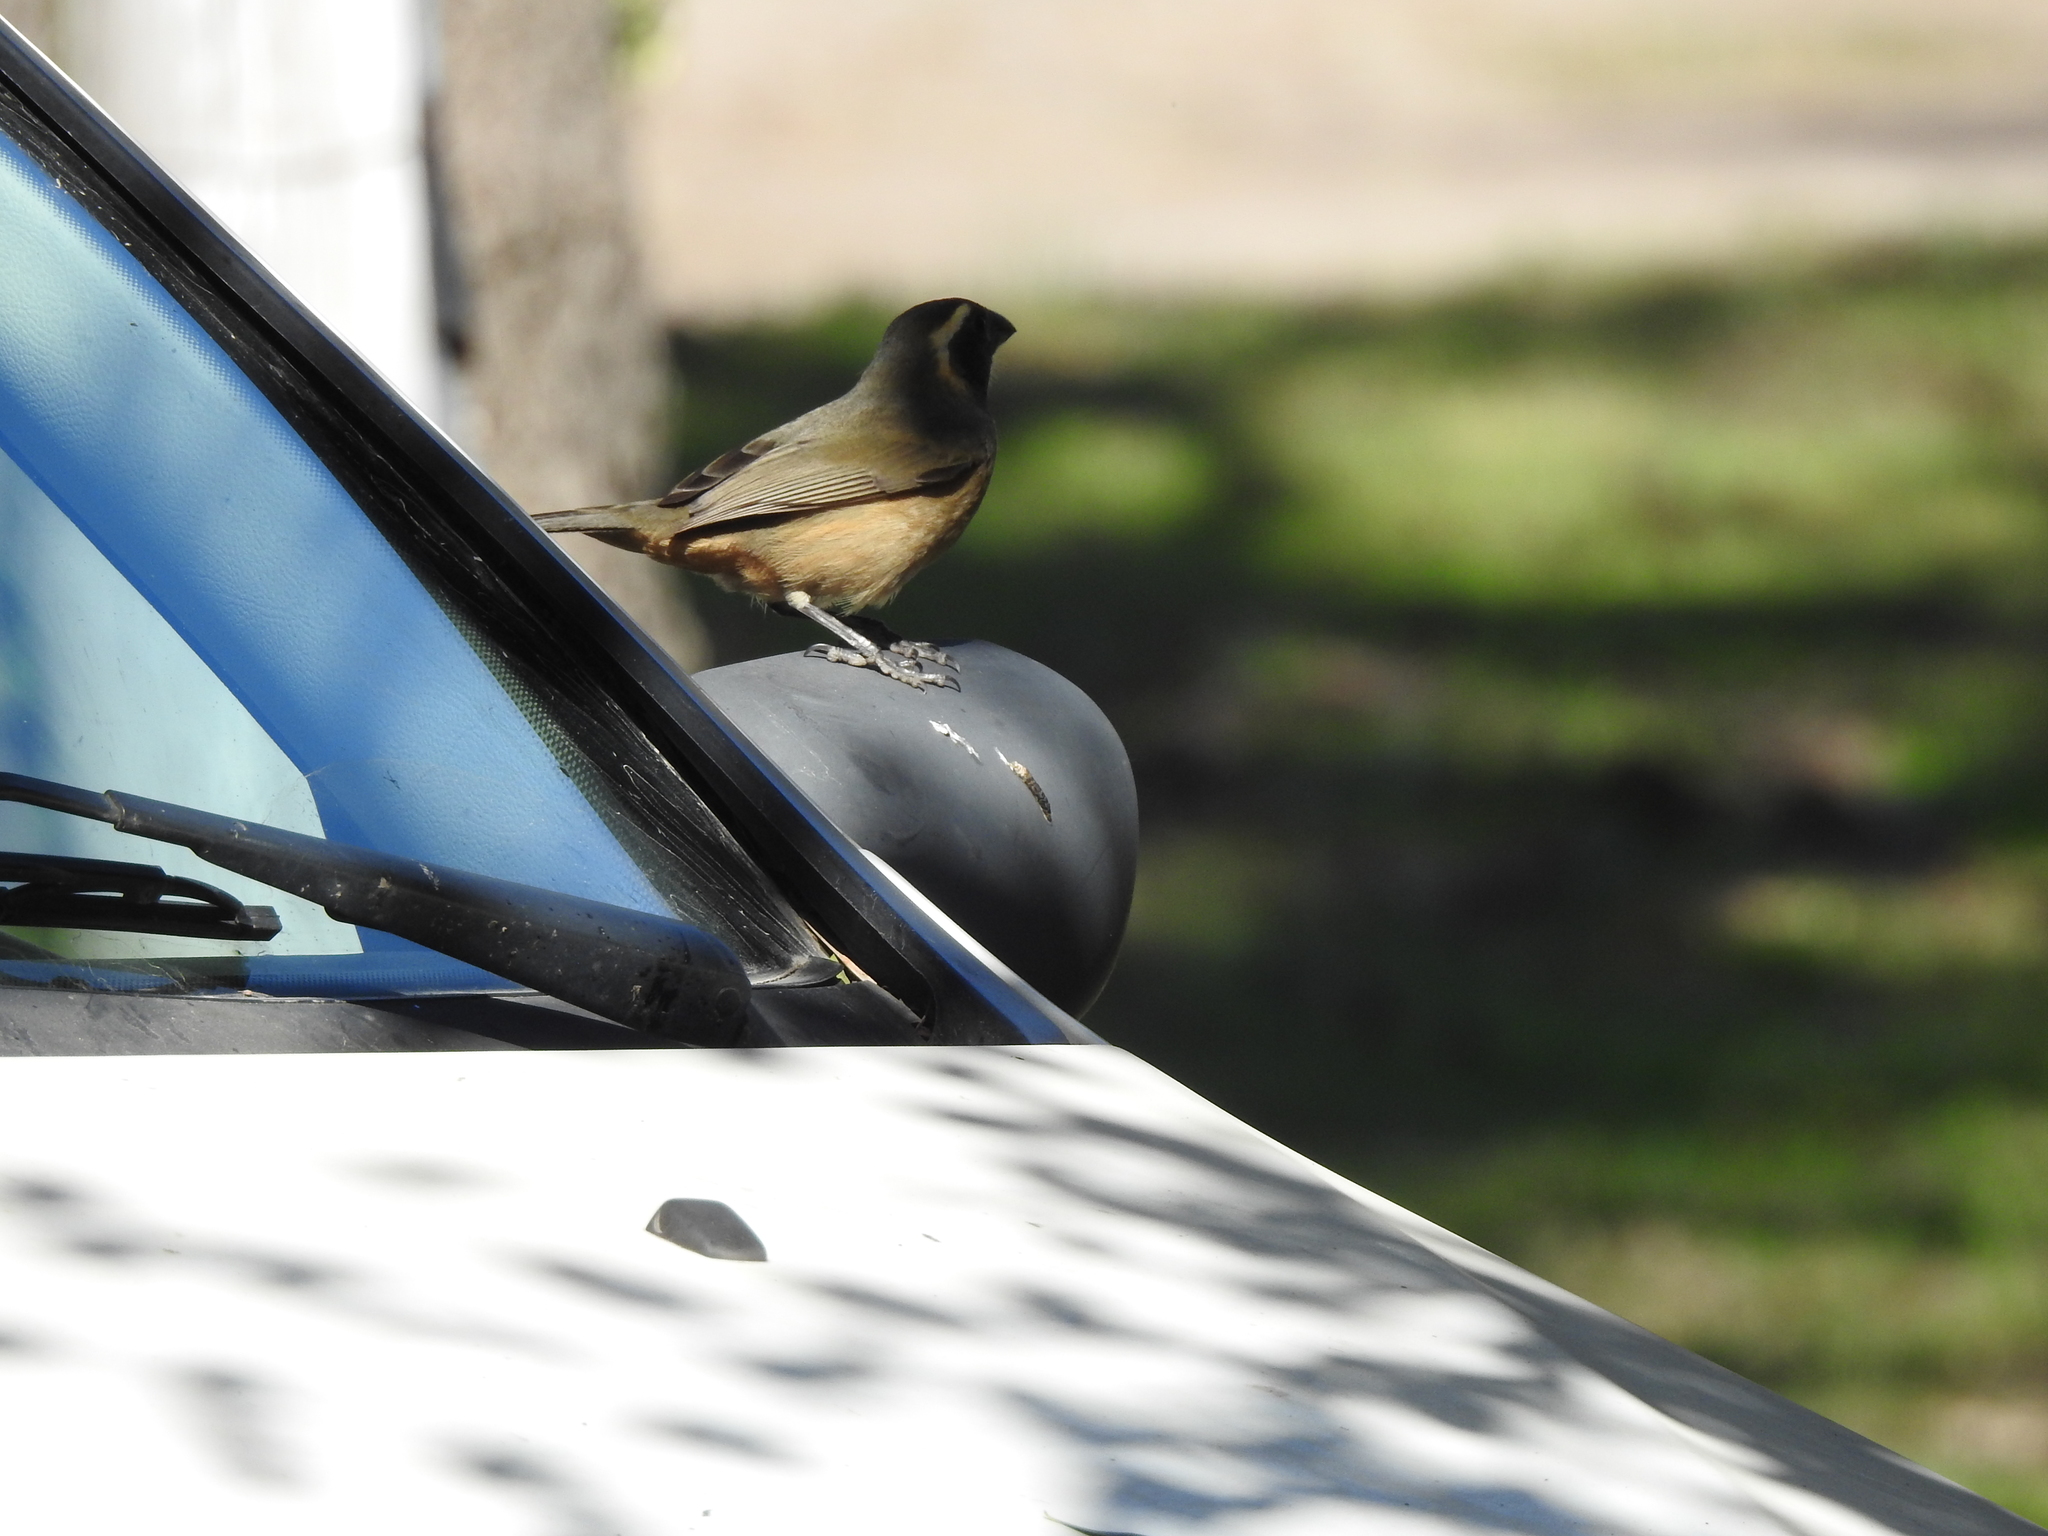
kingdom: Animalia
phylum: Chordata
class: Aves
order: Passeriformes
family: Thraupidae
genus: Saltator
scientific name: Saltator aurantiirostris
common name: Golden-billed saltator
